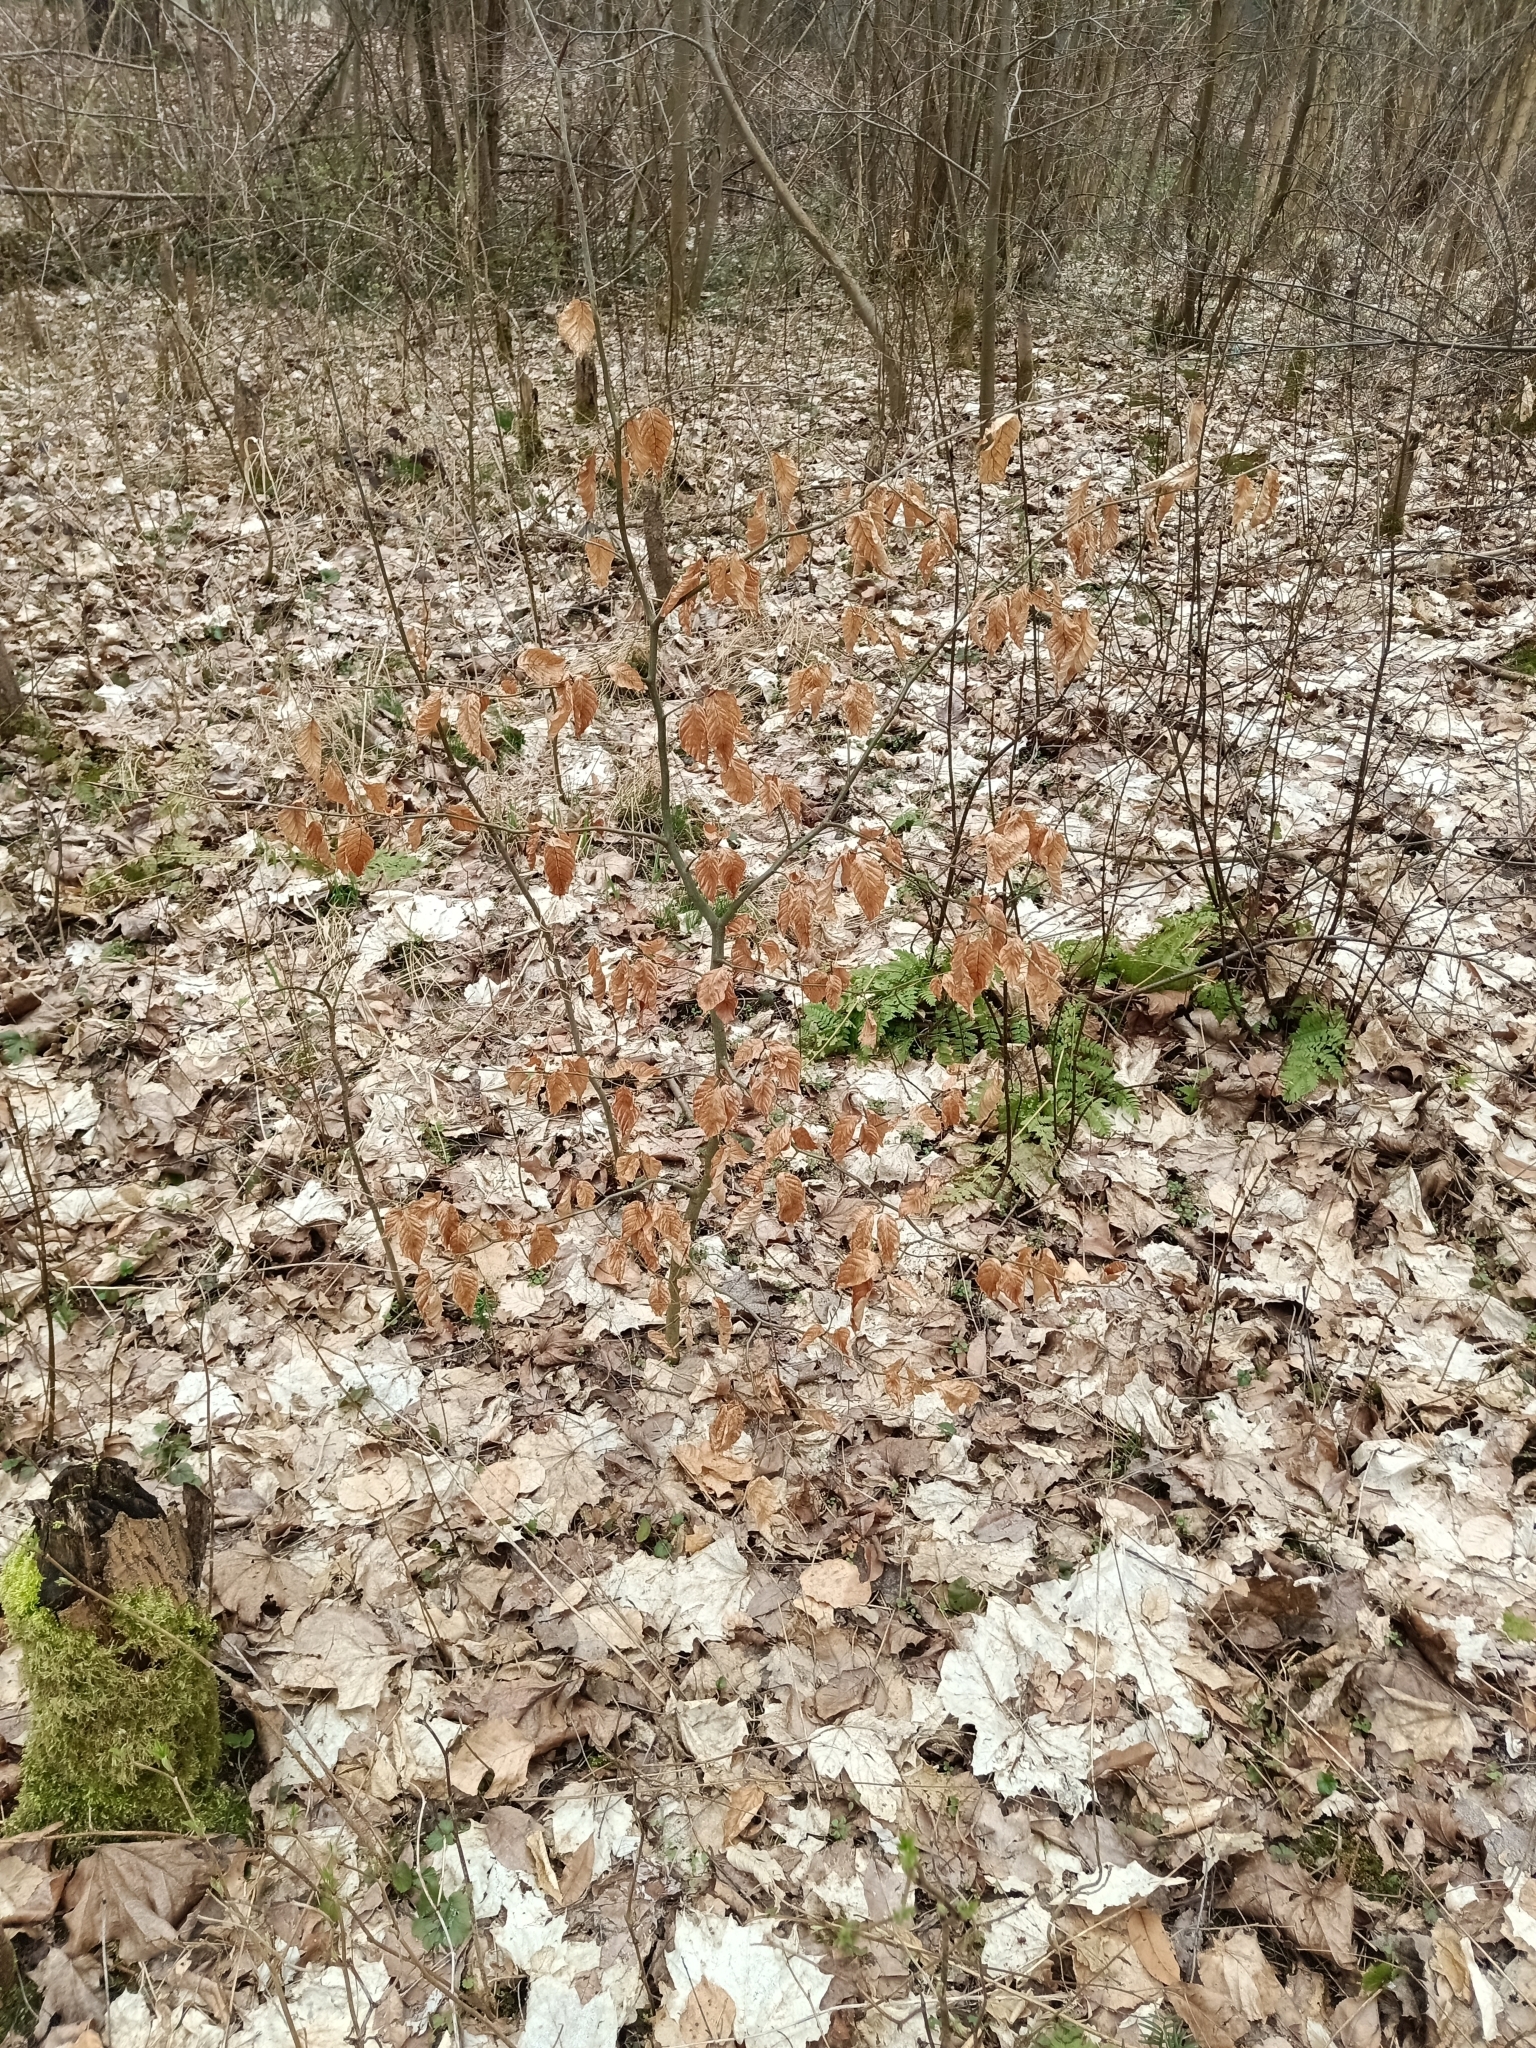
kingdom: Plantae
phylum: Tracheophyta
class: Magnoliopsida
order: Fagales
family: Fagaceae
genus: Fagus
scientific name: Fagus sylvatica
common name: Beech
